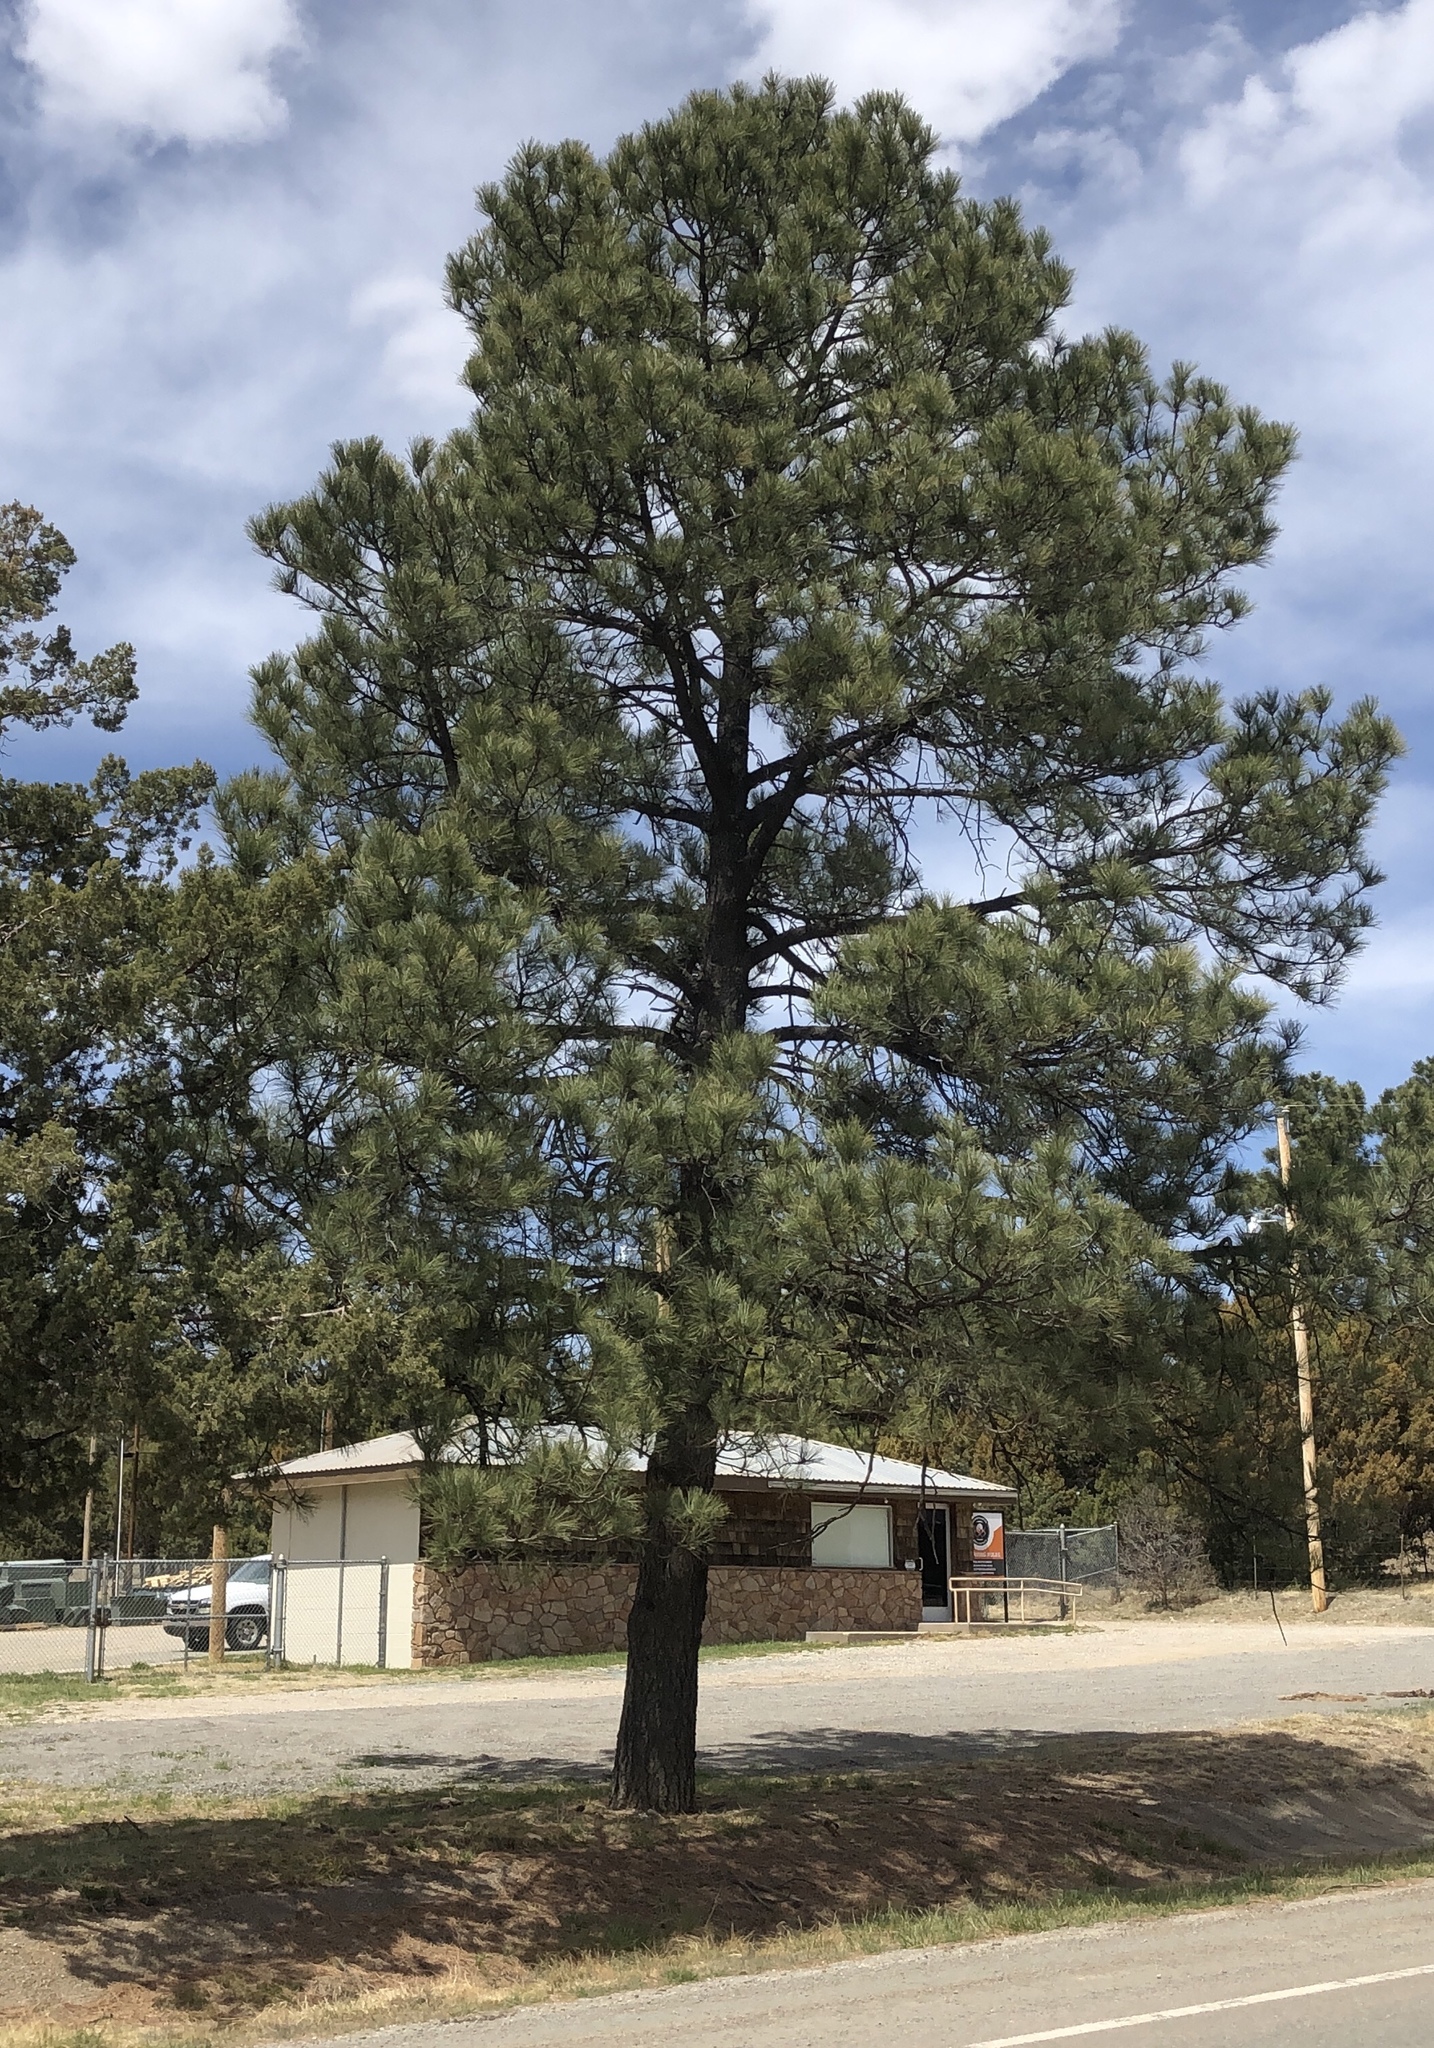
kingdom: Plantae
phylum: Tracheophyta
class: Pinopsida
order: Pinales
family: Pinaceae
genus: Pinus
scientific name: Pinus ponderosa
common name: Western yellow-pine
